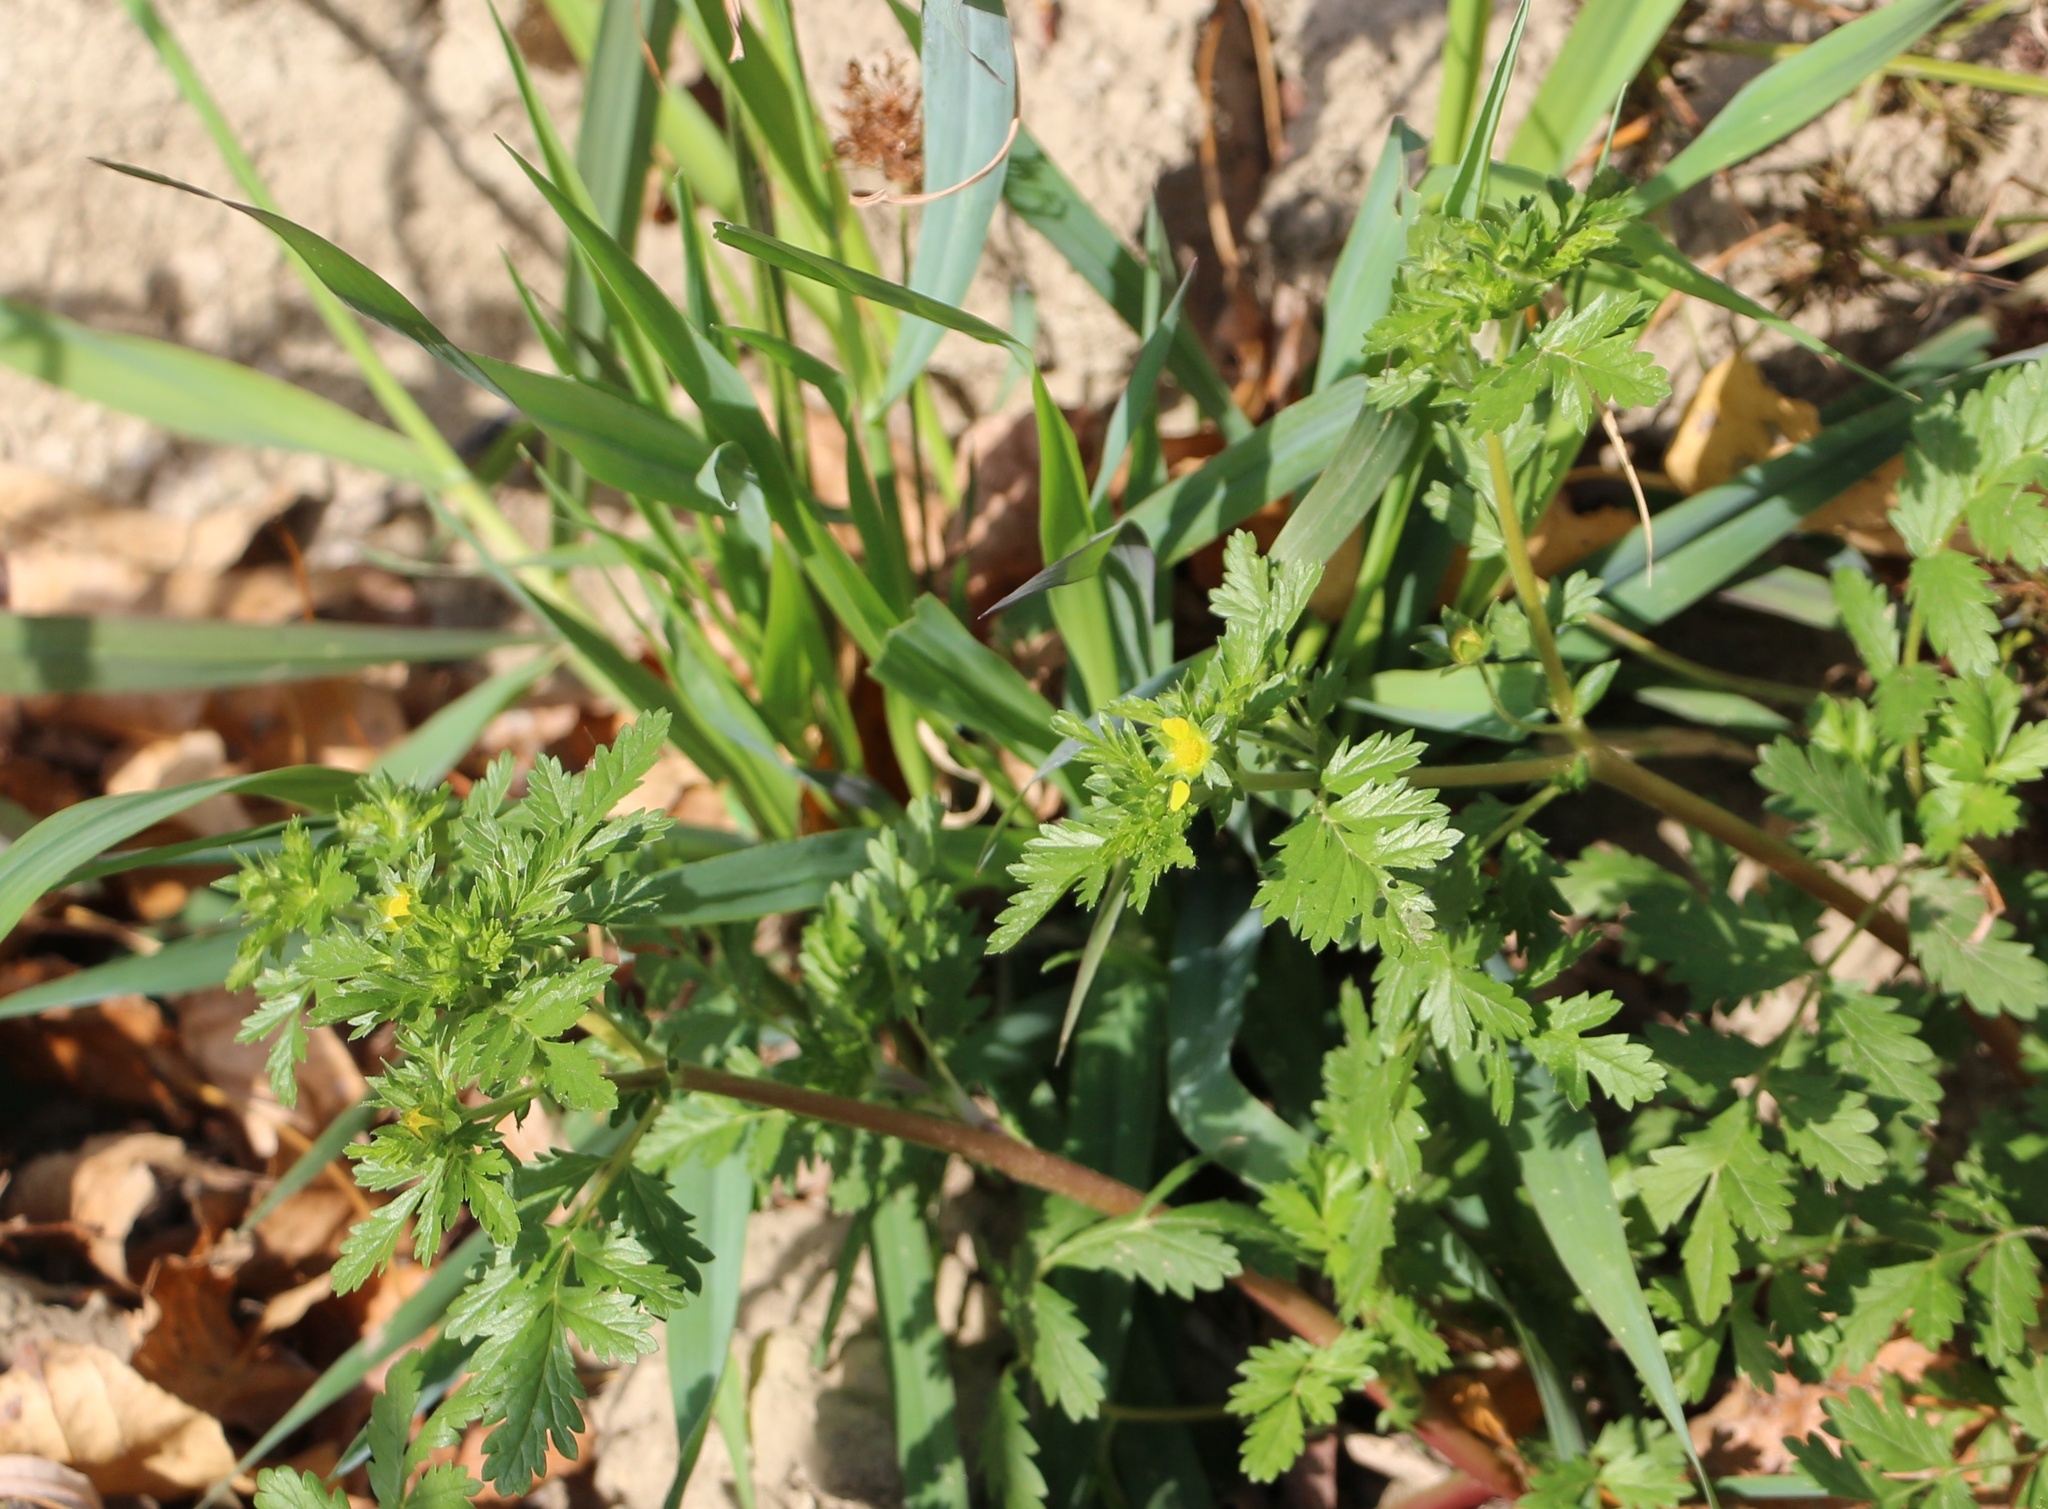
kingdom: Plantae
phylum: Tracheophyta
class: Magnoliopsida
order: Rosales
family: Rosaceae
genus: Potentilla
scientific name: Potentilla supina
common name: Prostrate cinquefoil
